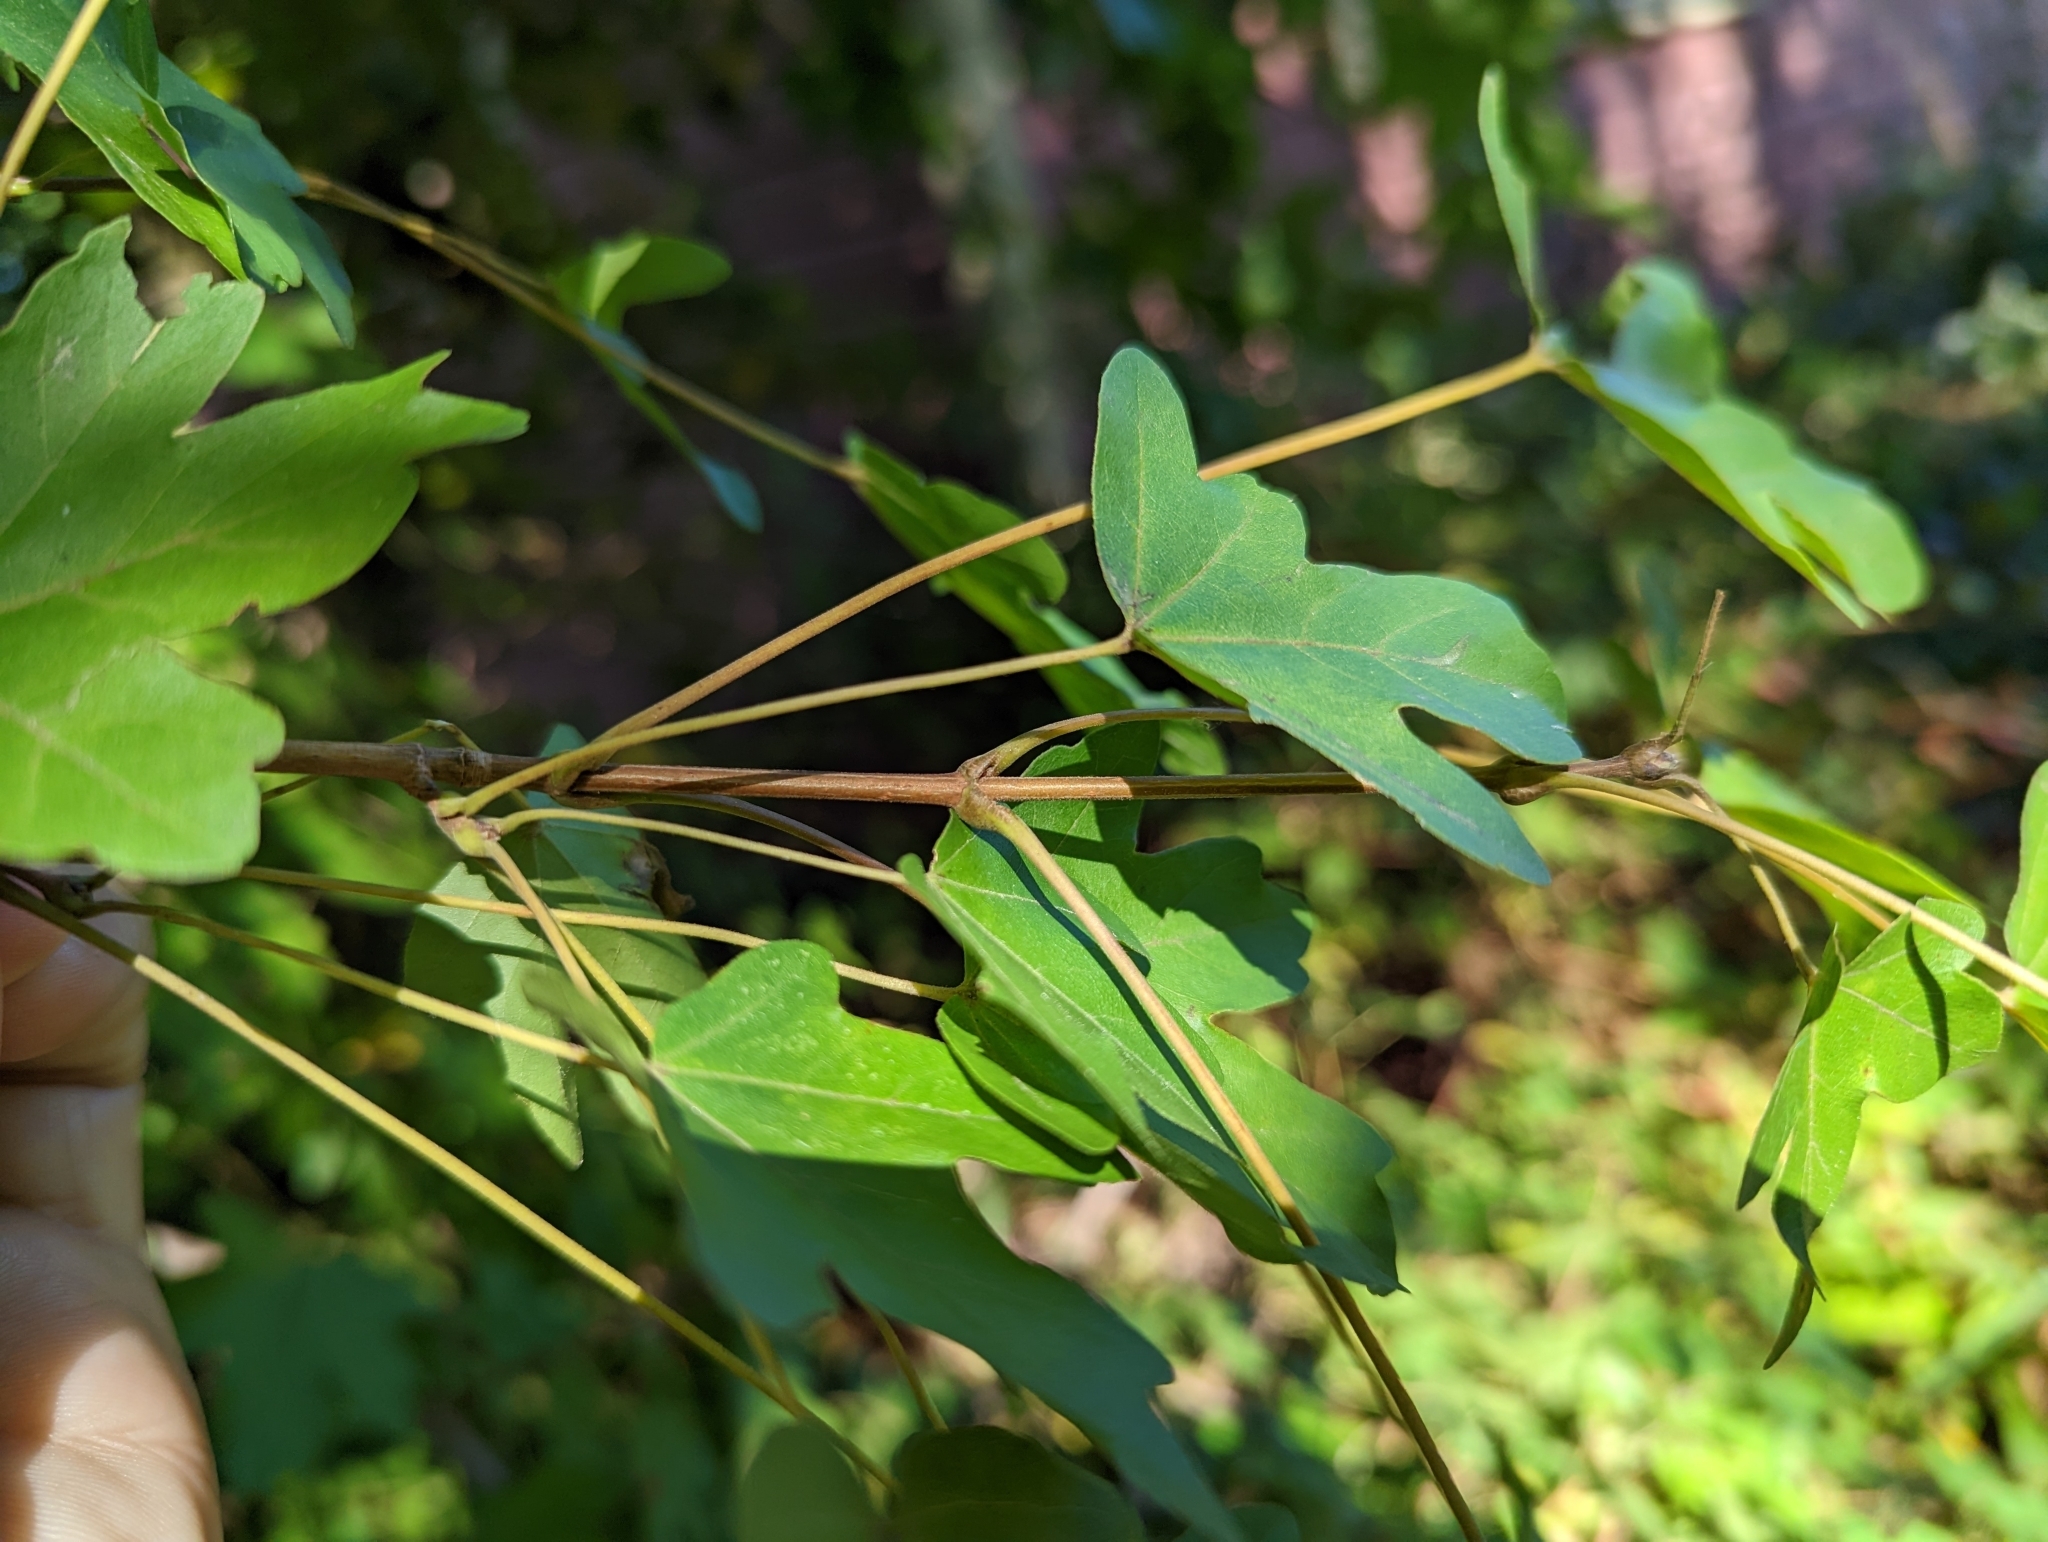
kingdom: Plantae
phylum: Tracheophyta
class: Magnoliopsida
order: Sapindales
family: Sapindaceae
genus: Acer
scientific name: Acer campestre
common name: Field maple
